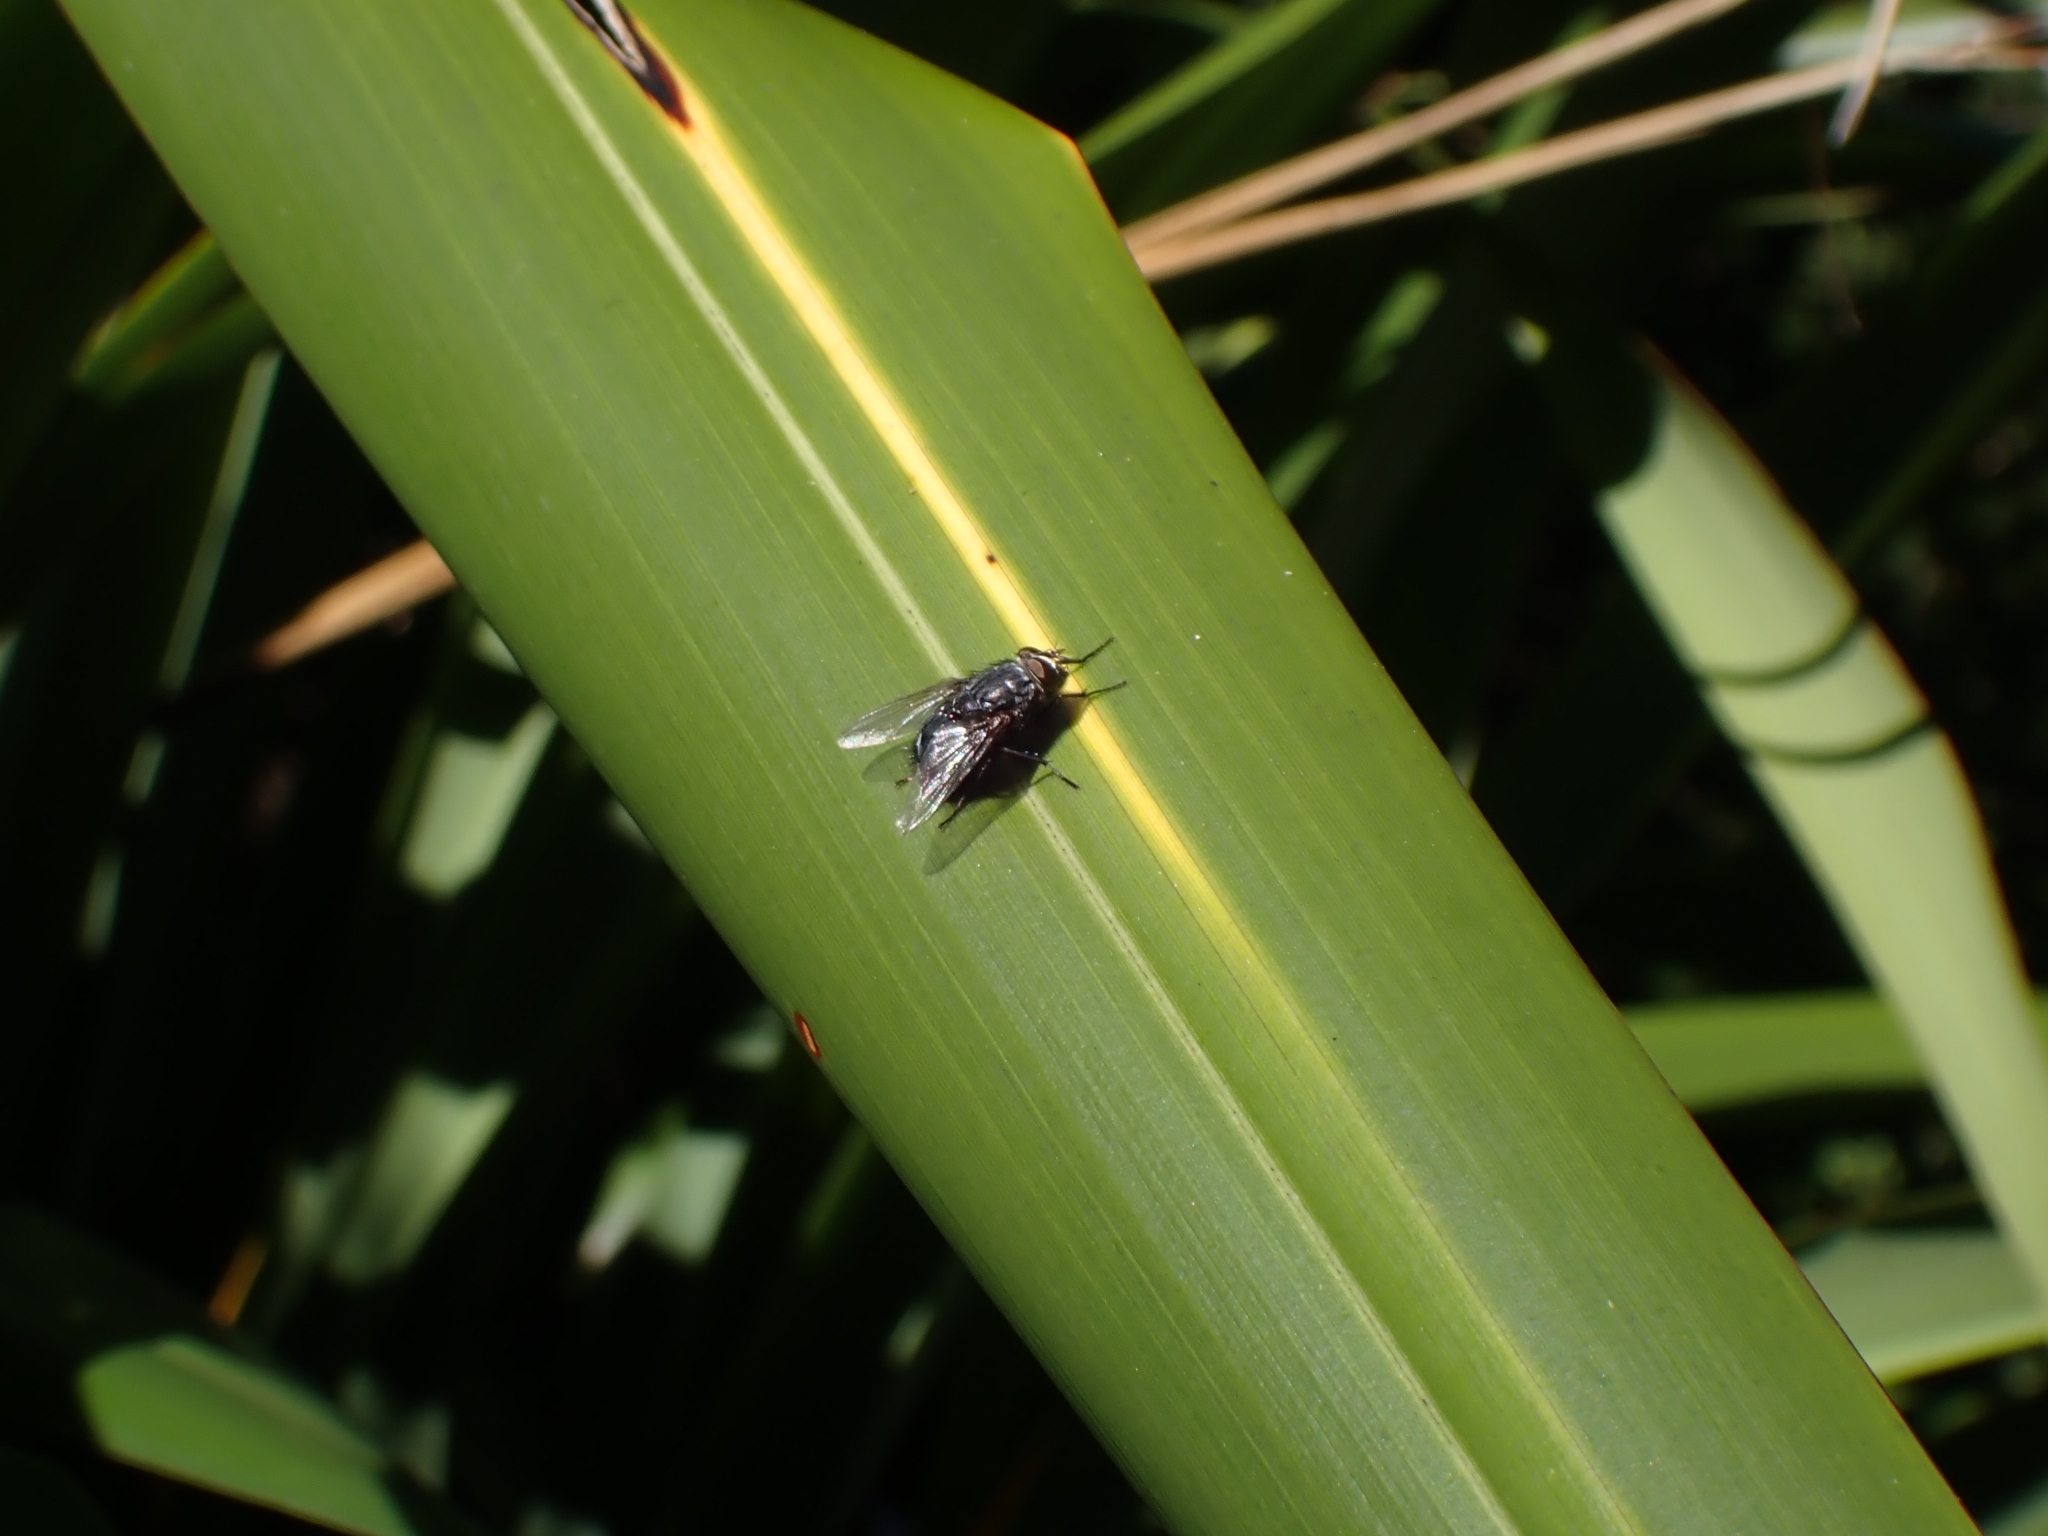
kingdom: Animalia
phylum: Arthropoda
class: Insecta
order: Diptera
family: Calliphoridae
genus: Calliphora
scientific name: Calliphora vicina
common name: Common blow flie
